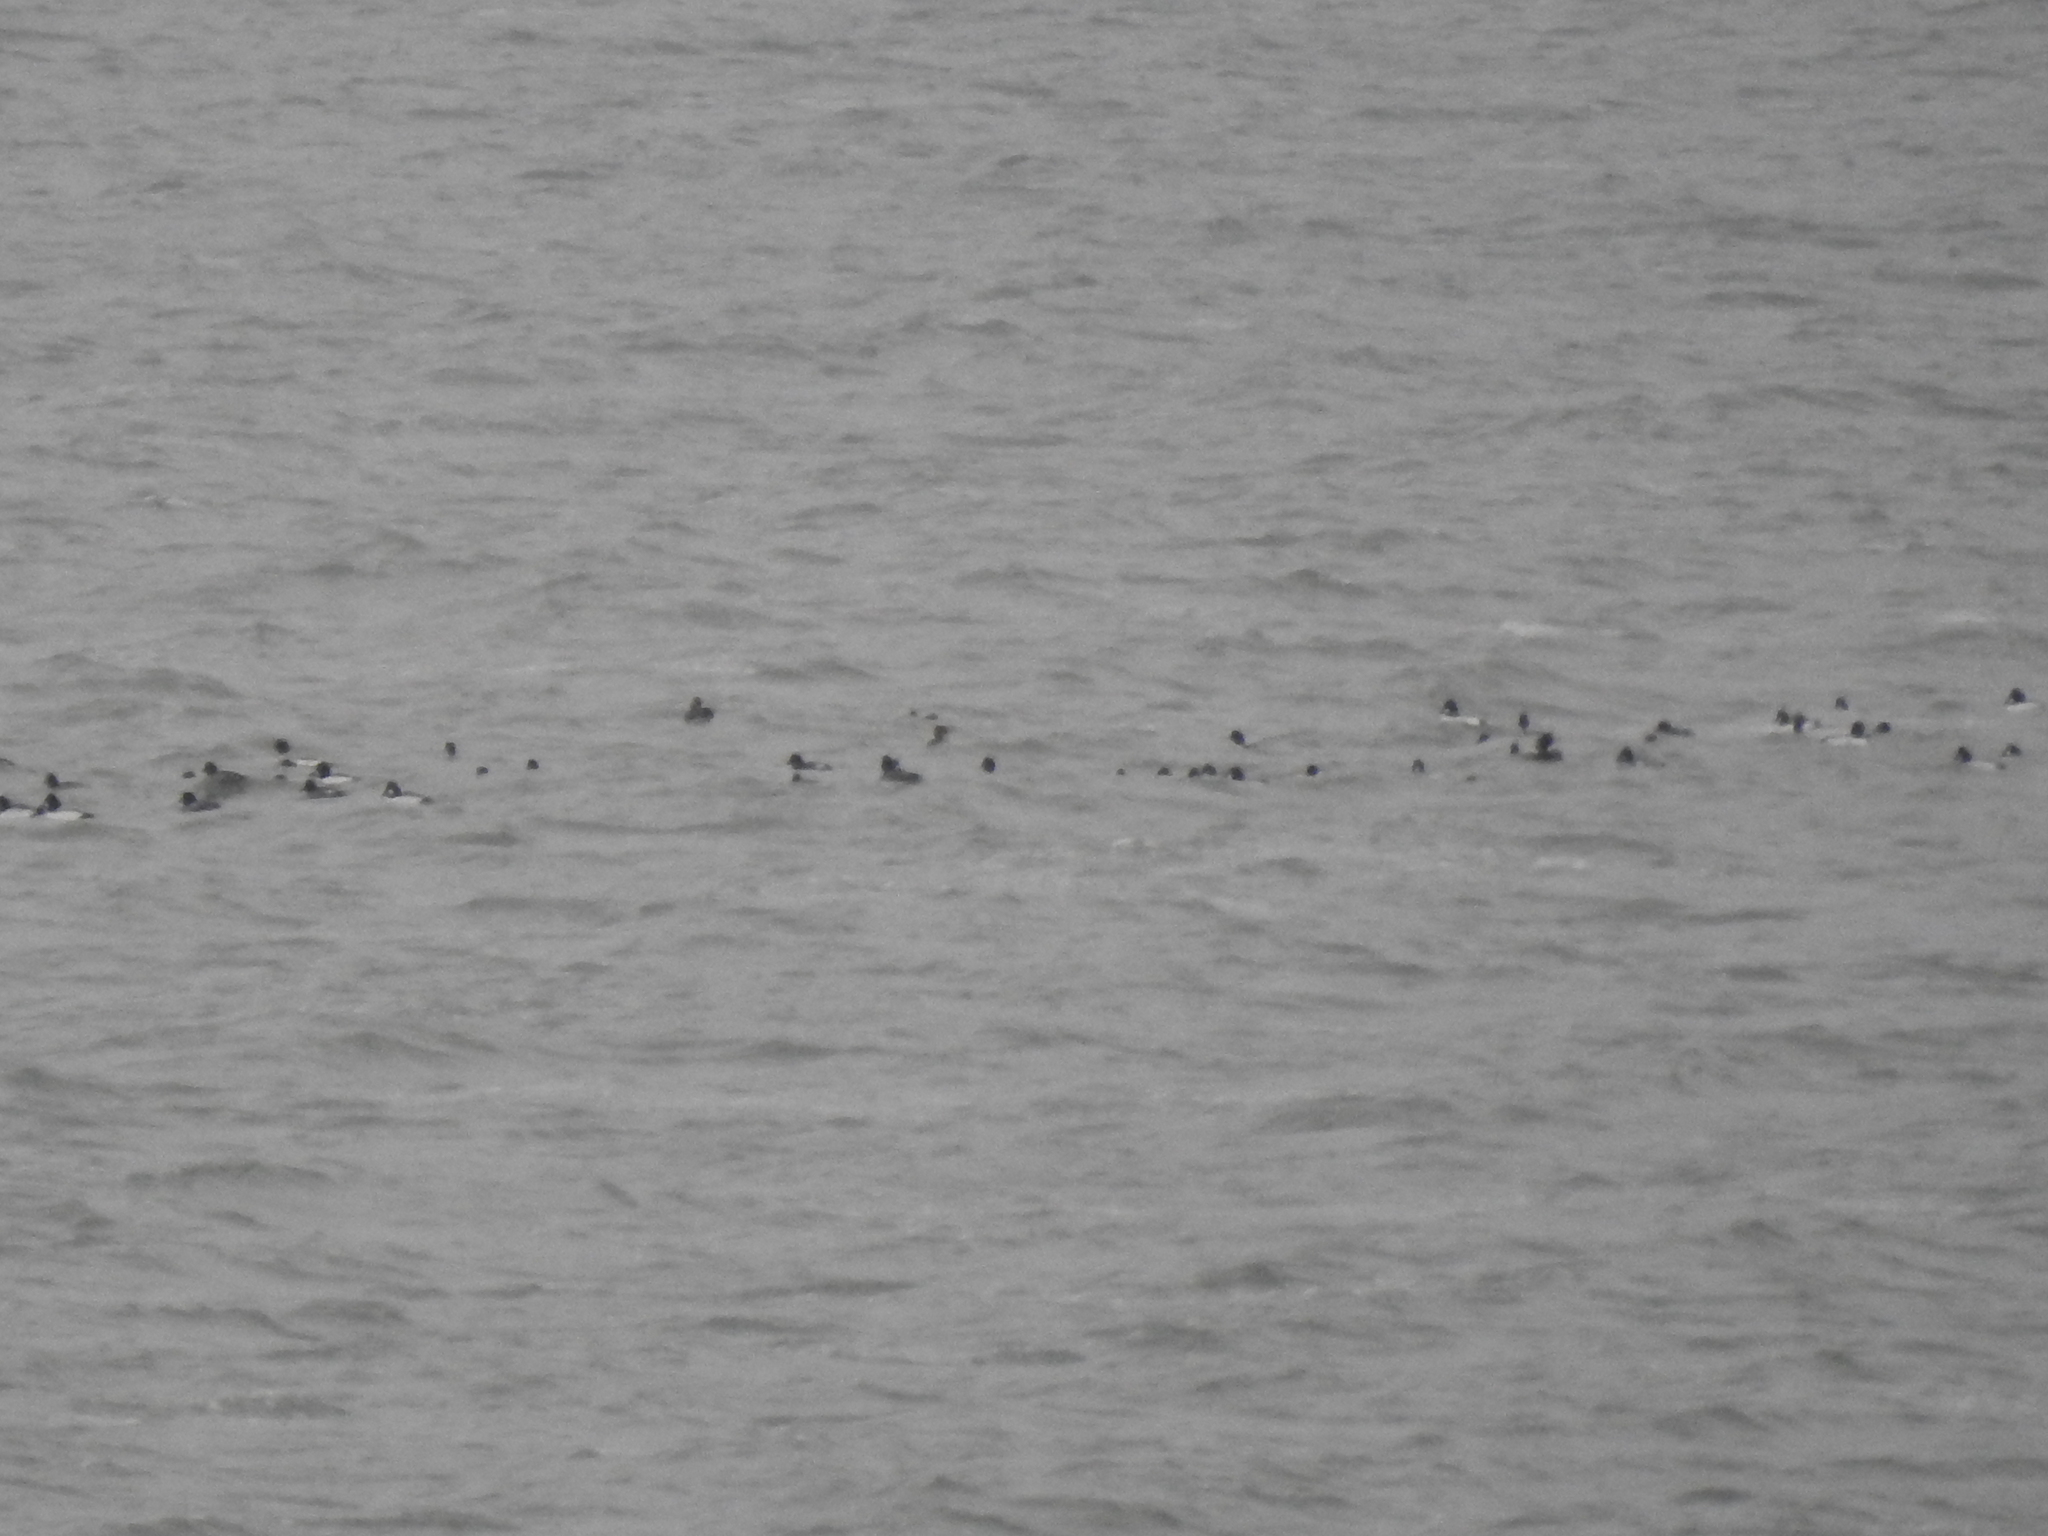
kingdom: Animalia
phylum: Chordata
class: Aves
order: Anseriformes
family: Anatidae
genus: Bucephala
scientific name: Bucephala clangula
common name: Common goldeneye
